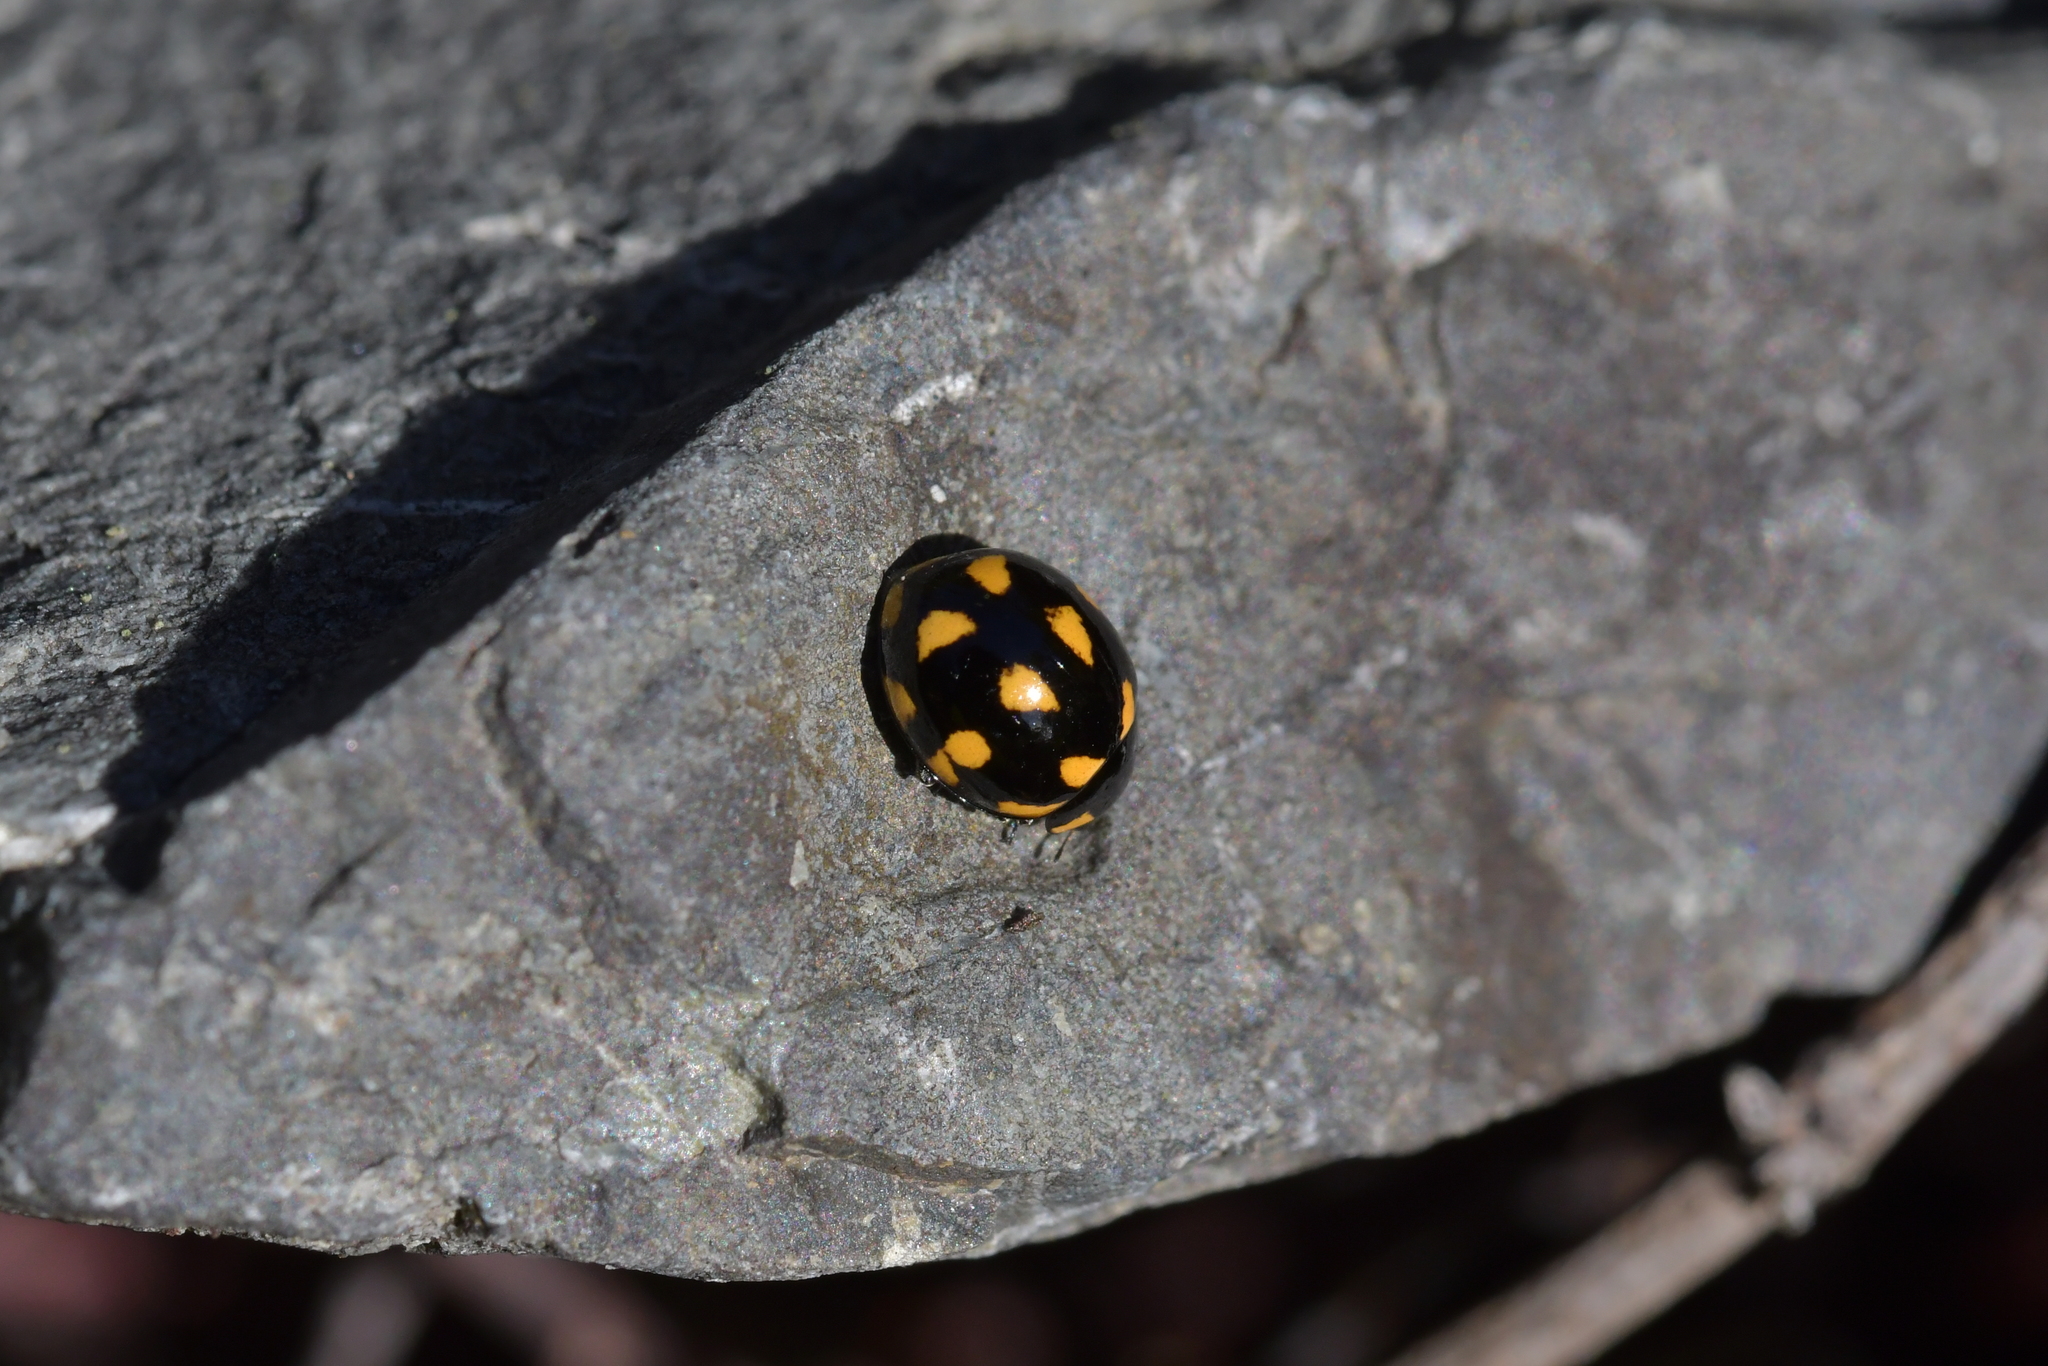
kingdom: Animalia
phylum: Arthropoda
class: Insecta
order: Coleoptera
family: Coccinellidae
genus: Coccinella
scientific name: Coccinella leonina
